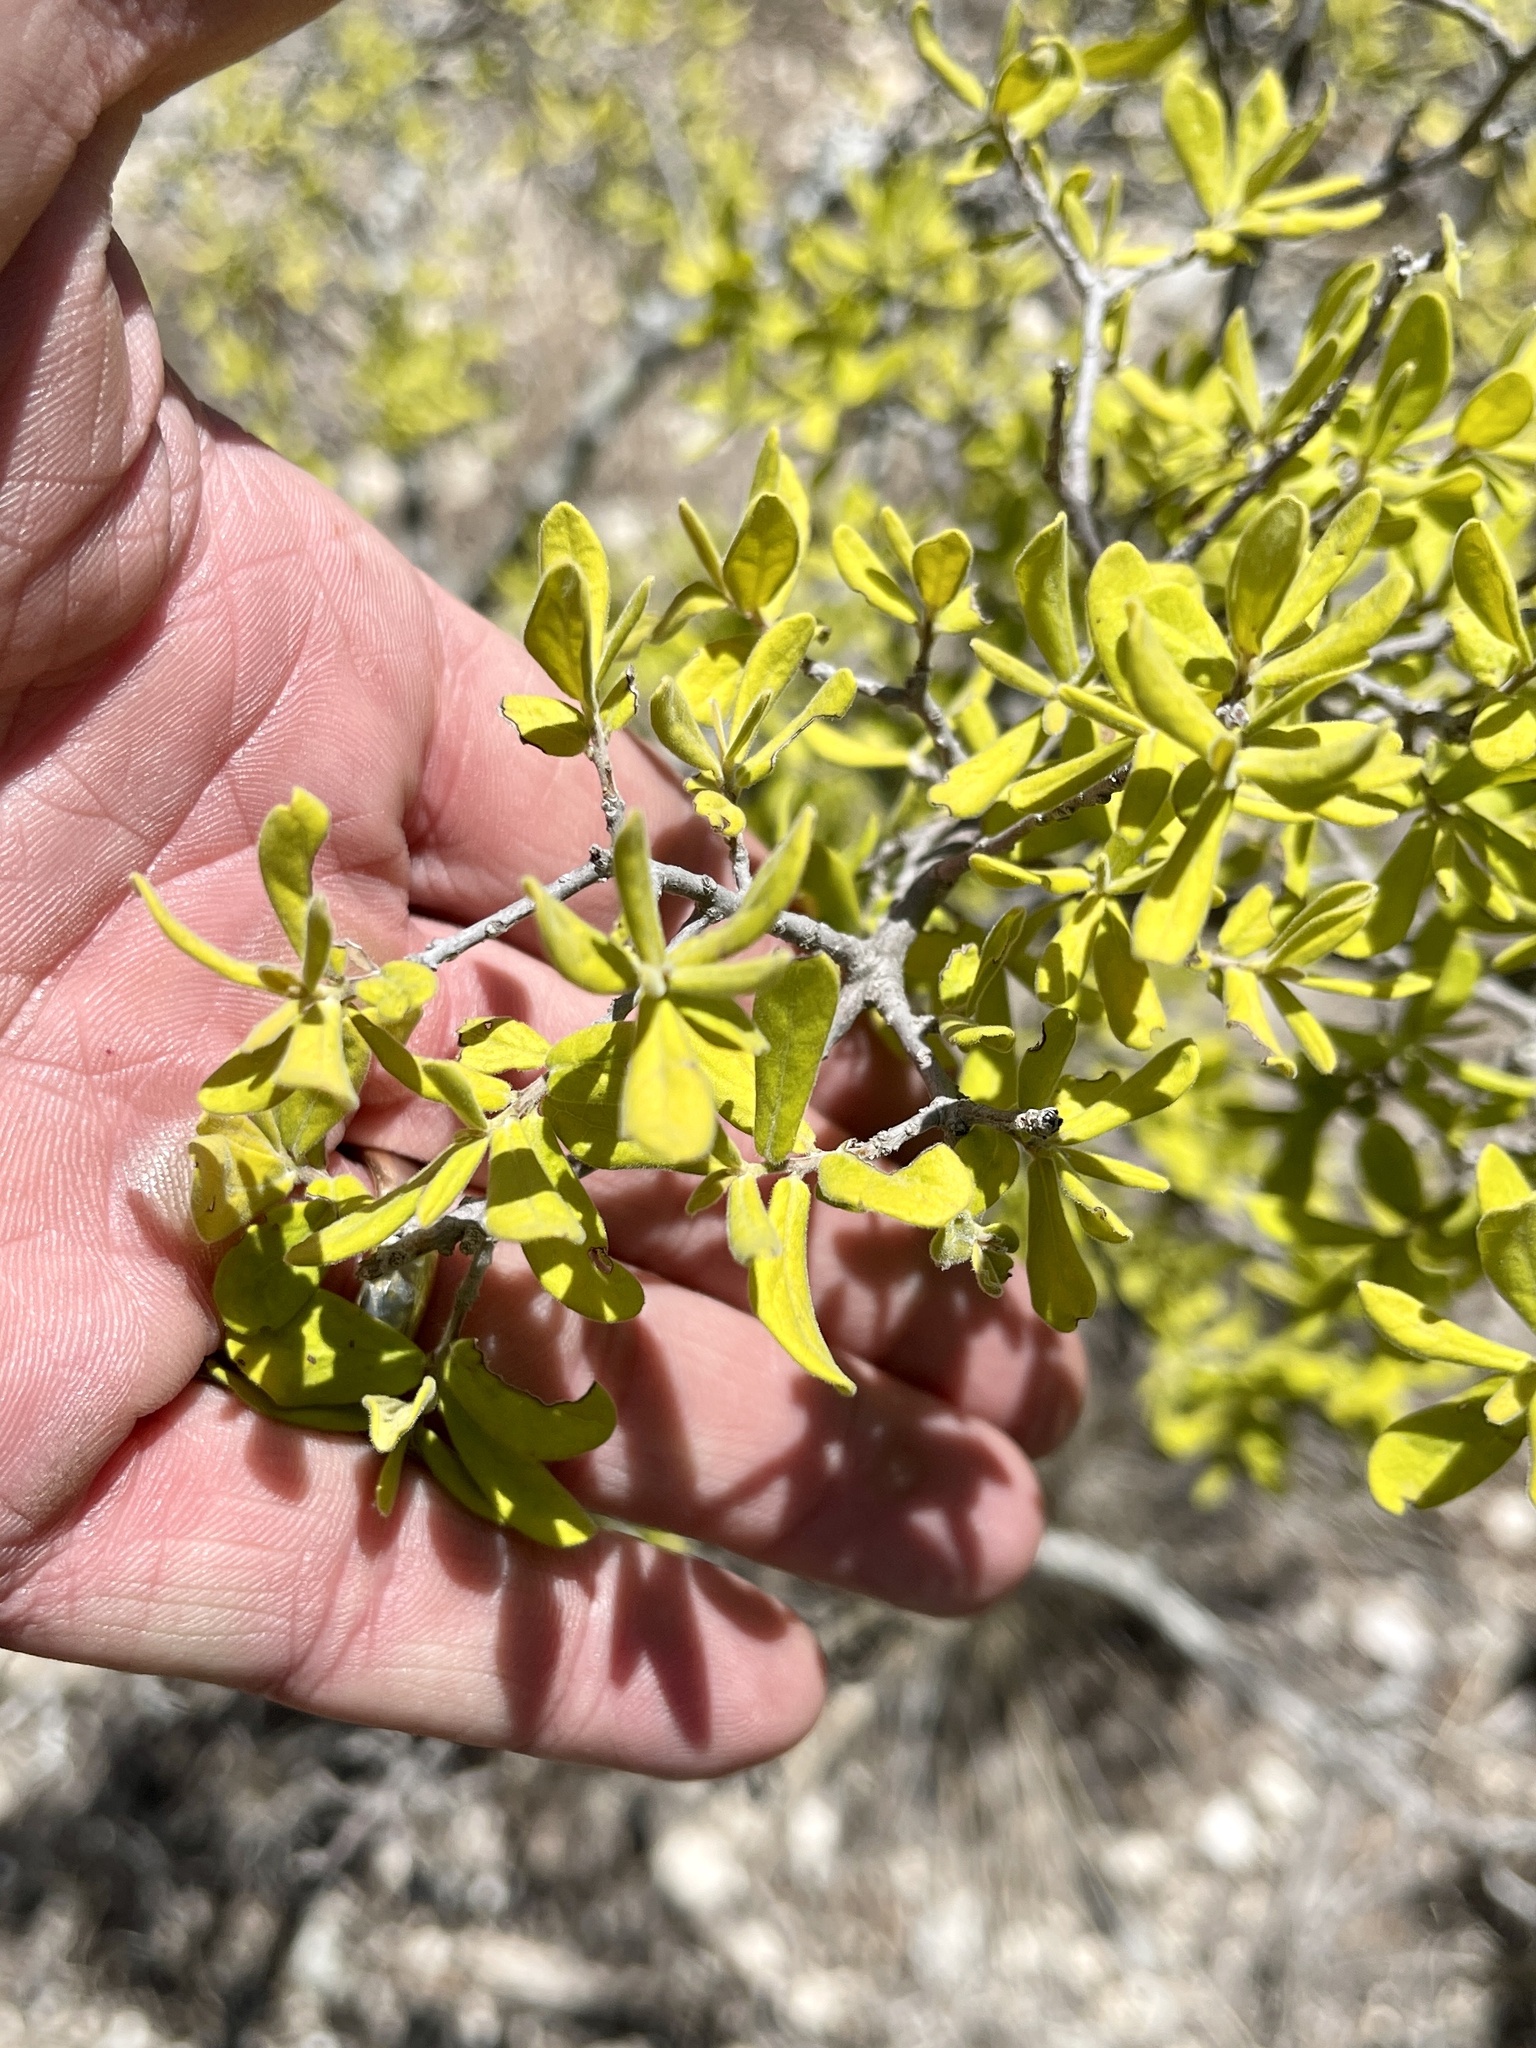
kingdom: Plantae
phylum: Tracheophyta
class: Magnoliopsida
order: Ericales
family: Ebenaceae
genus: Diospyros
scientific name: Diospyros texana
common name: Texas persimmon
